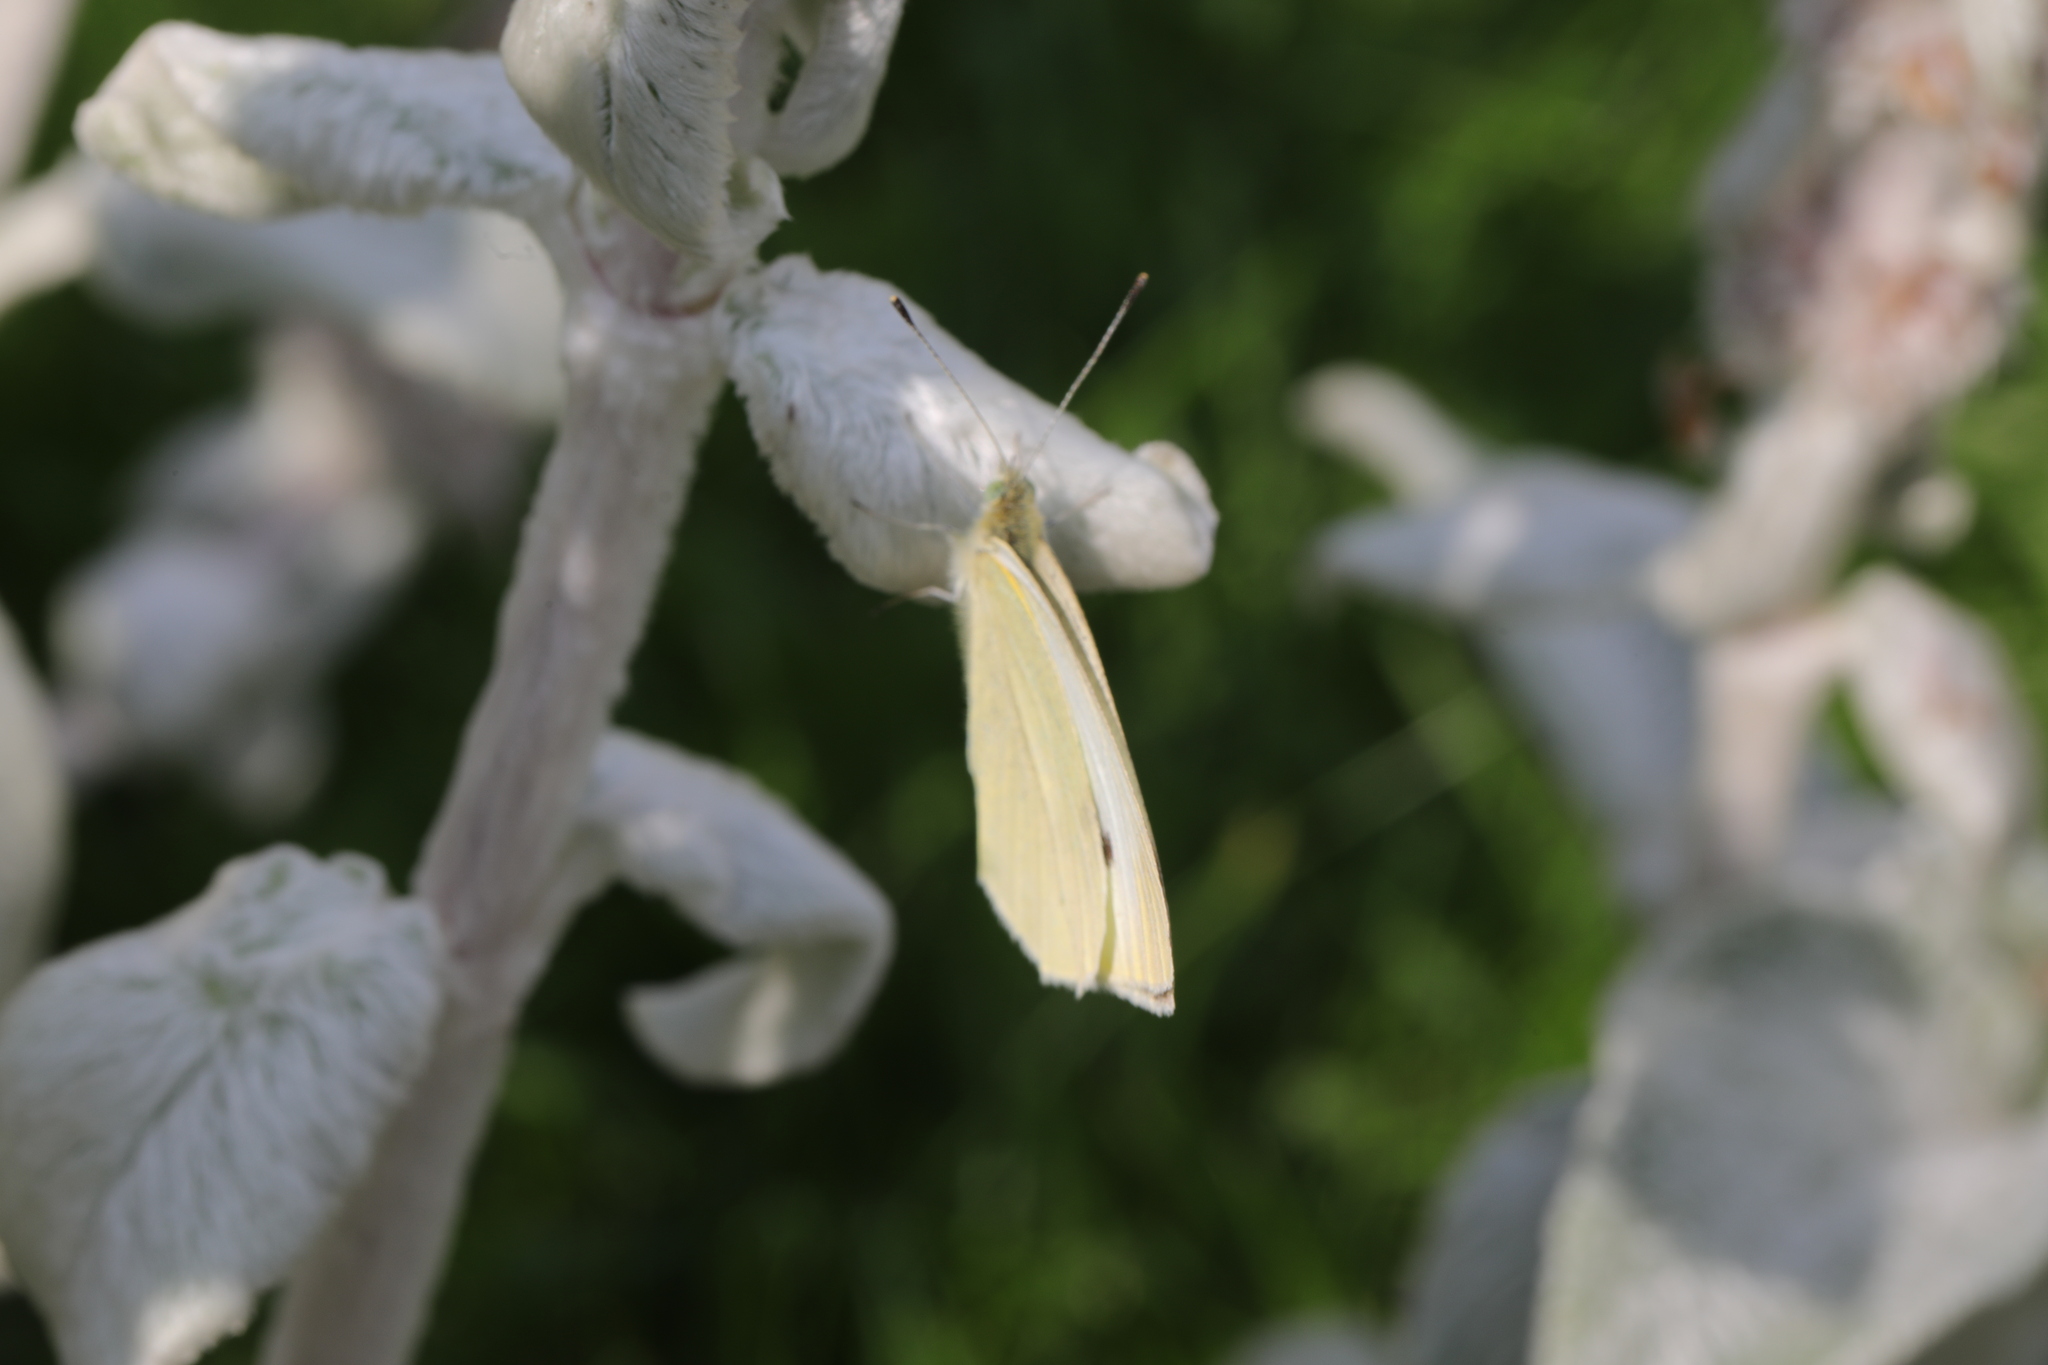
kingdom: Animalia
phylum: Arthropoda
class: Insecta
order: Lepidoptera
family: Pieridae
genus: Pieris
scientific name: Pieris rapae
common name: Small white
